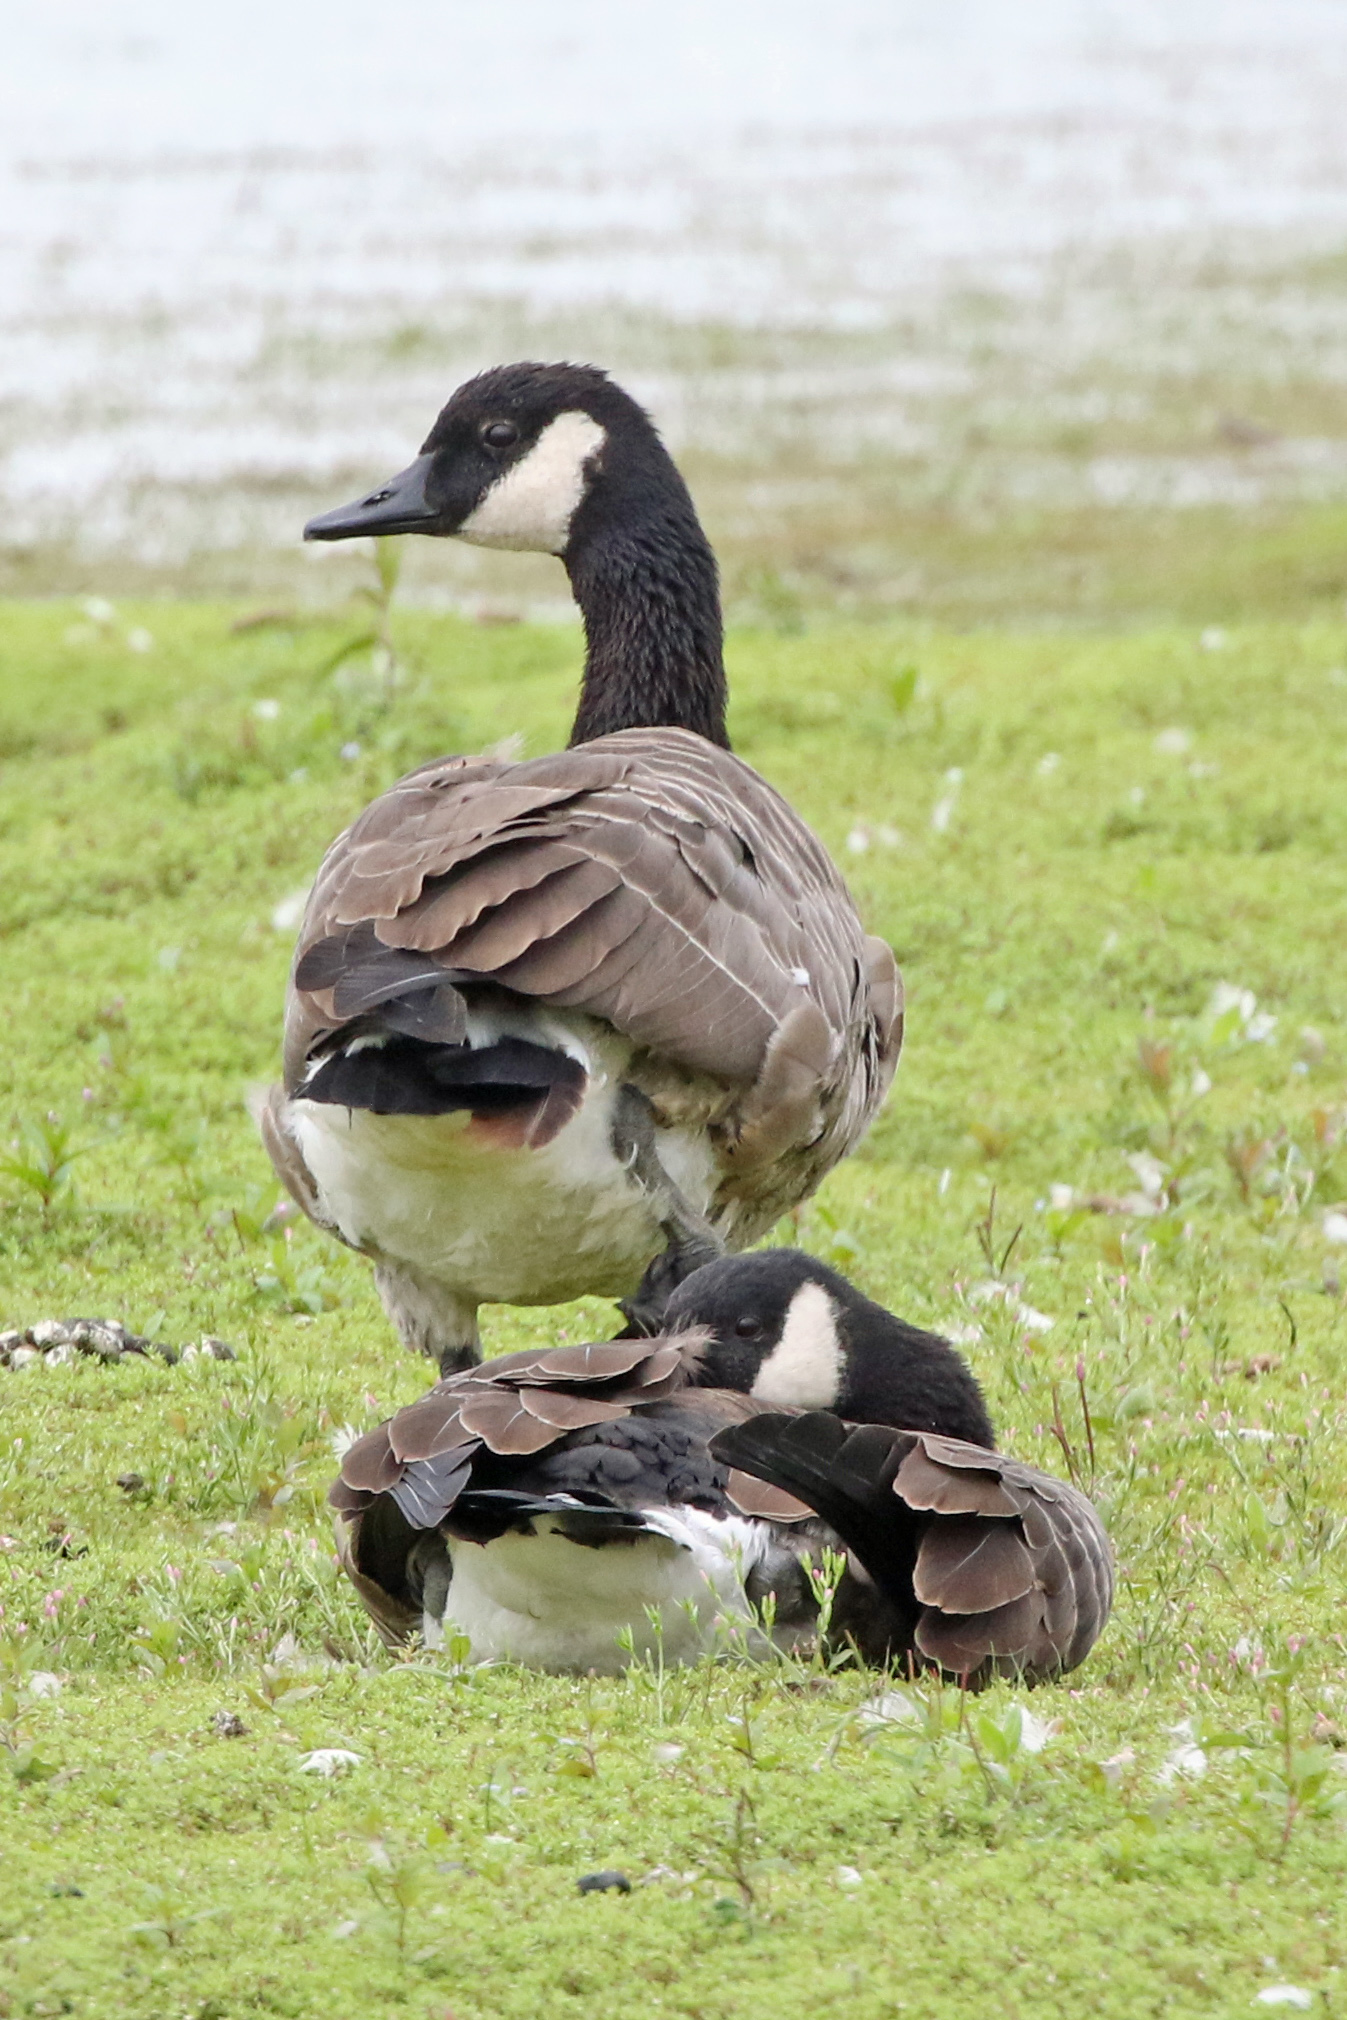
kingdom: Animalia
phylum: Chordata
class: Aves
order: Anseriformes
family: Anatidae
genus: Branta
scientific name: Branta canadensis
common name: Canada goose
